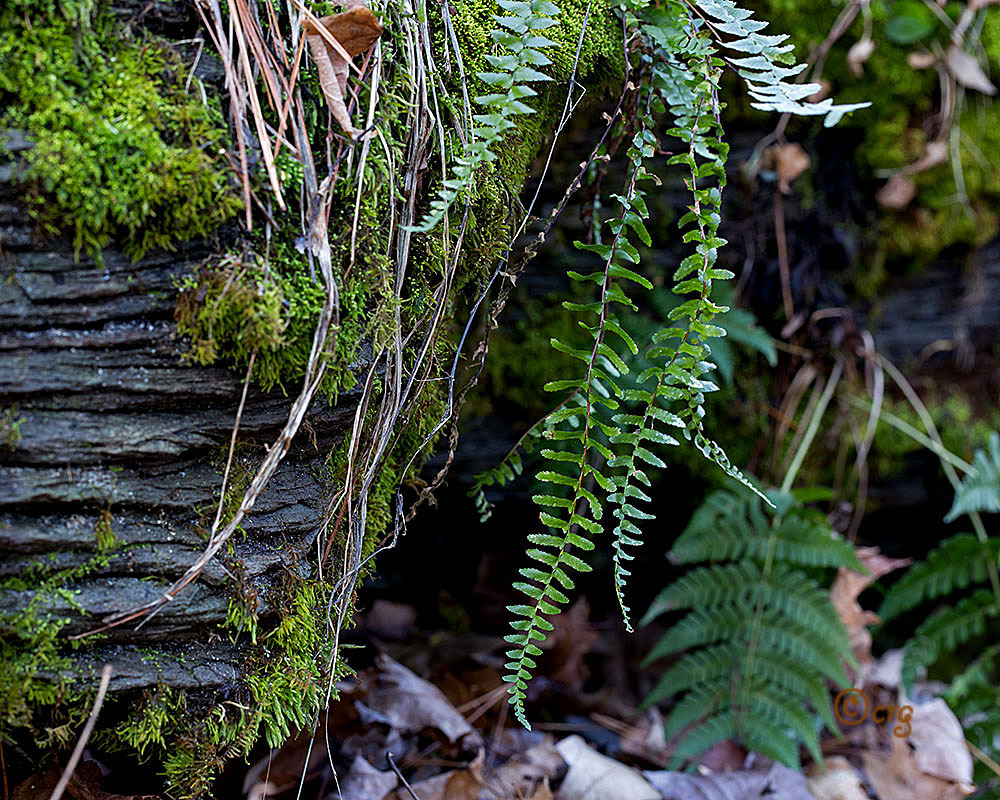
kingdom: Plantae
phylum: Tracheophyta
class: Polypodiopsida
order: Polypodiales
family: Aspleniaceae
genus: Asplenium
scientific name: Asplenium platyneuron
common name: Ebony spleenwort
